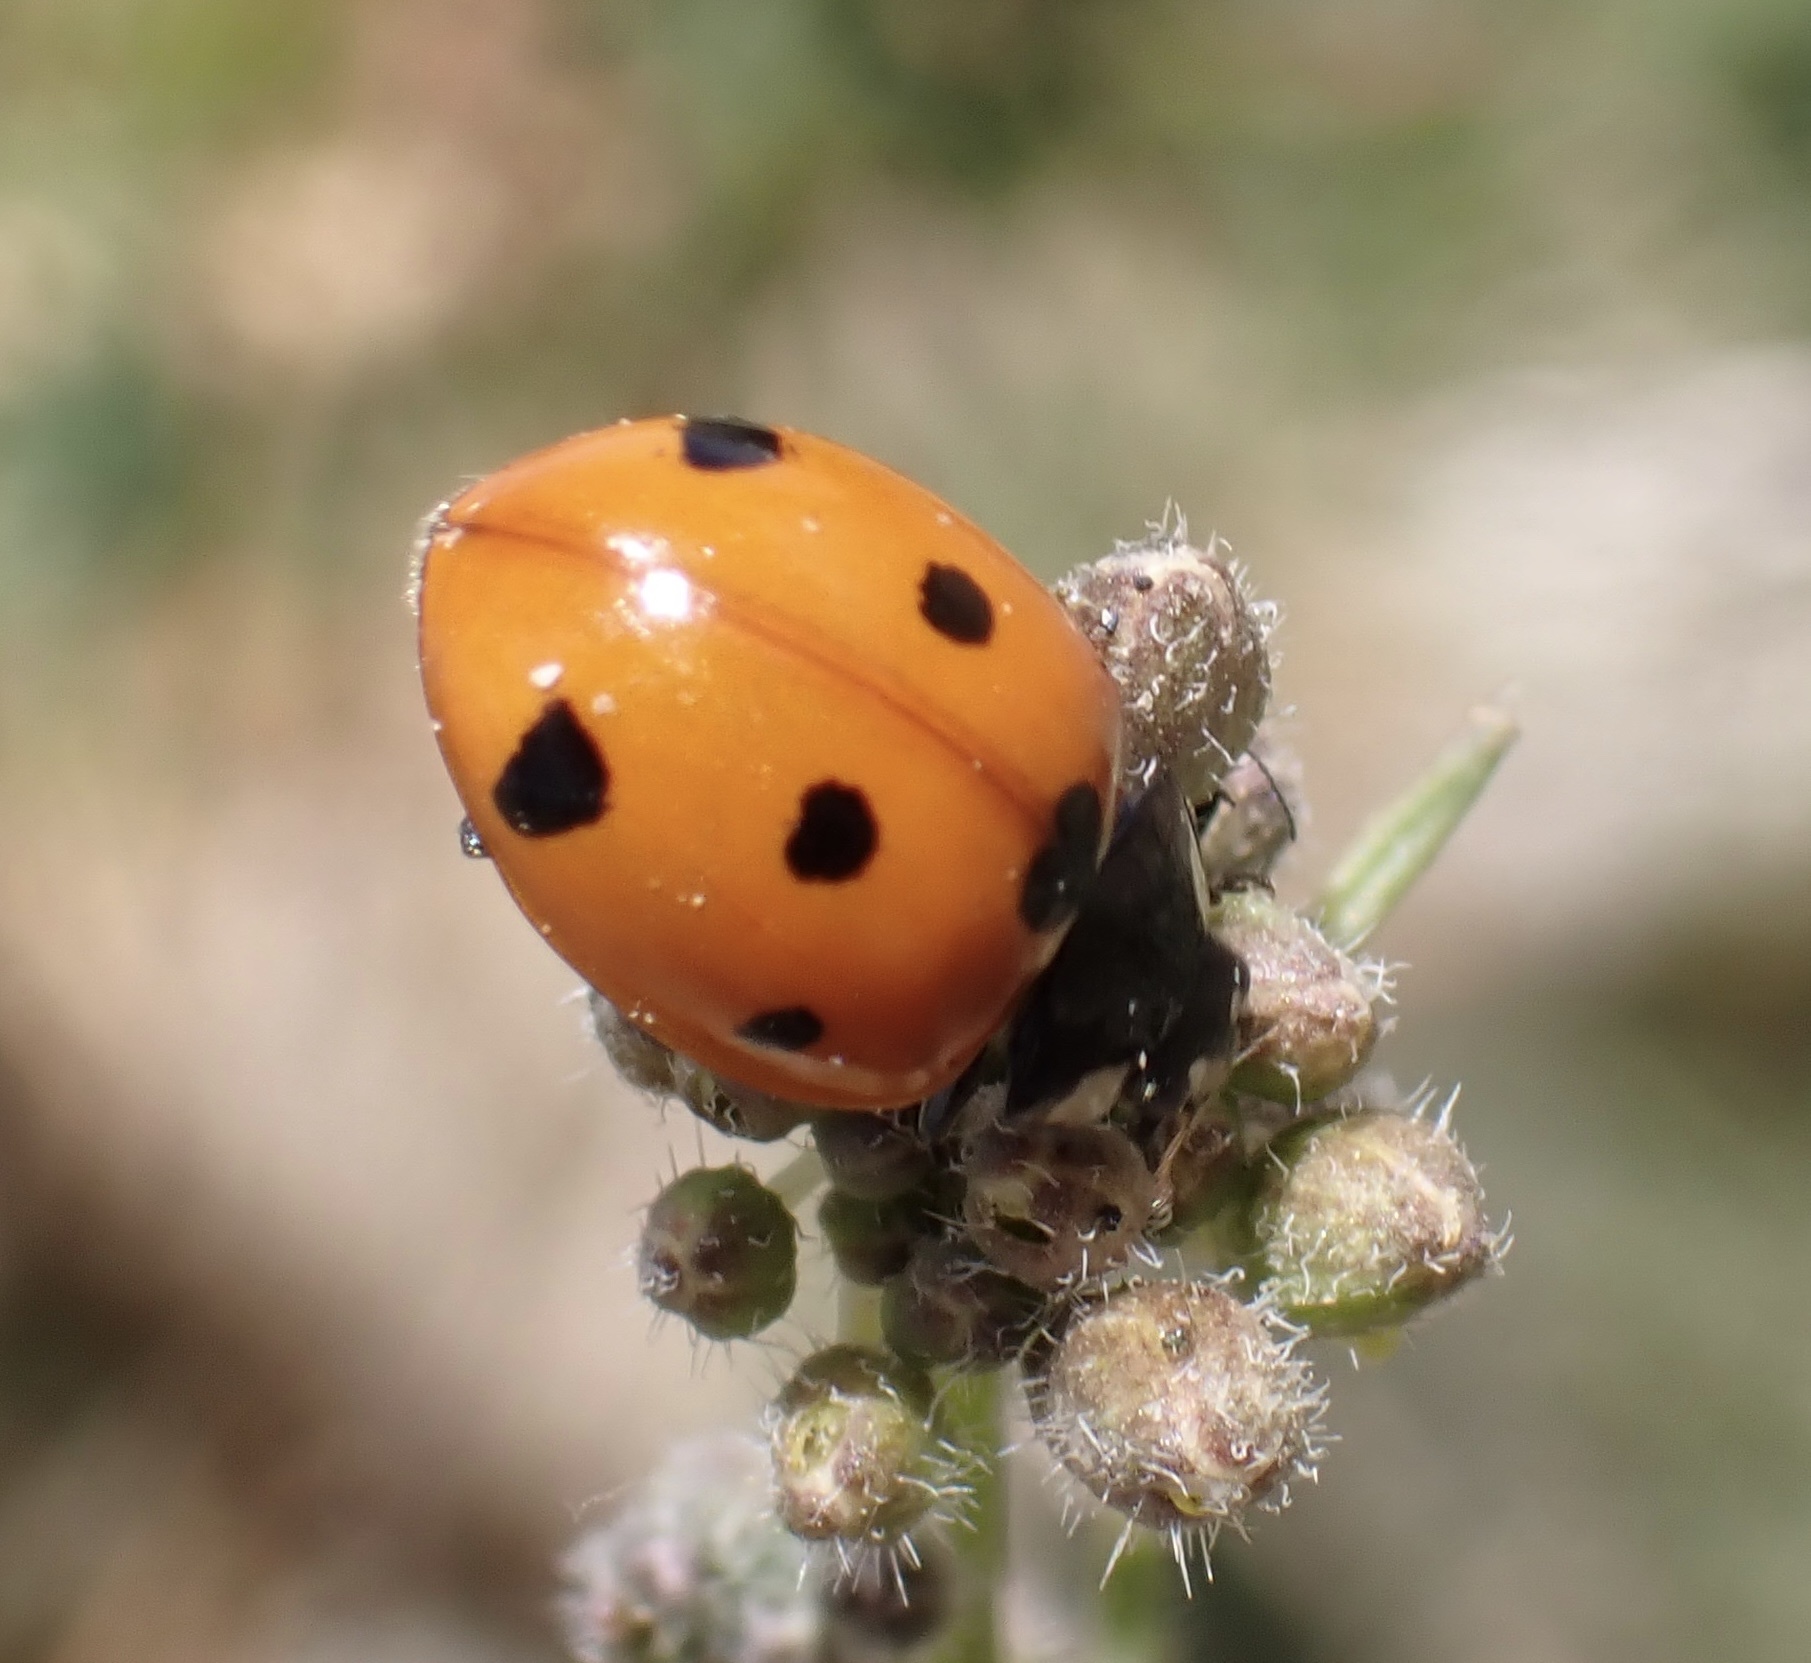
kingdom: Animalia
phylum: Arthropoda
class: Insecta
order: Coleoptera
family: Coccinellidae
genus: Coccinella
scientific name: Coccinella algerica
